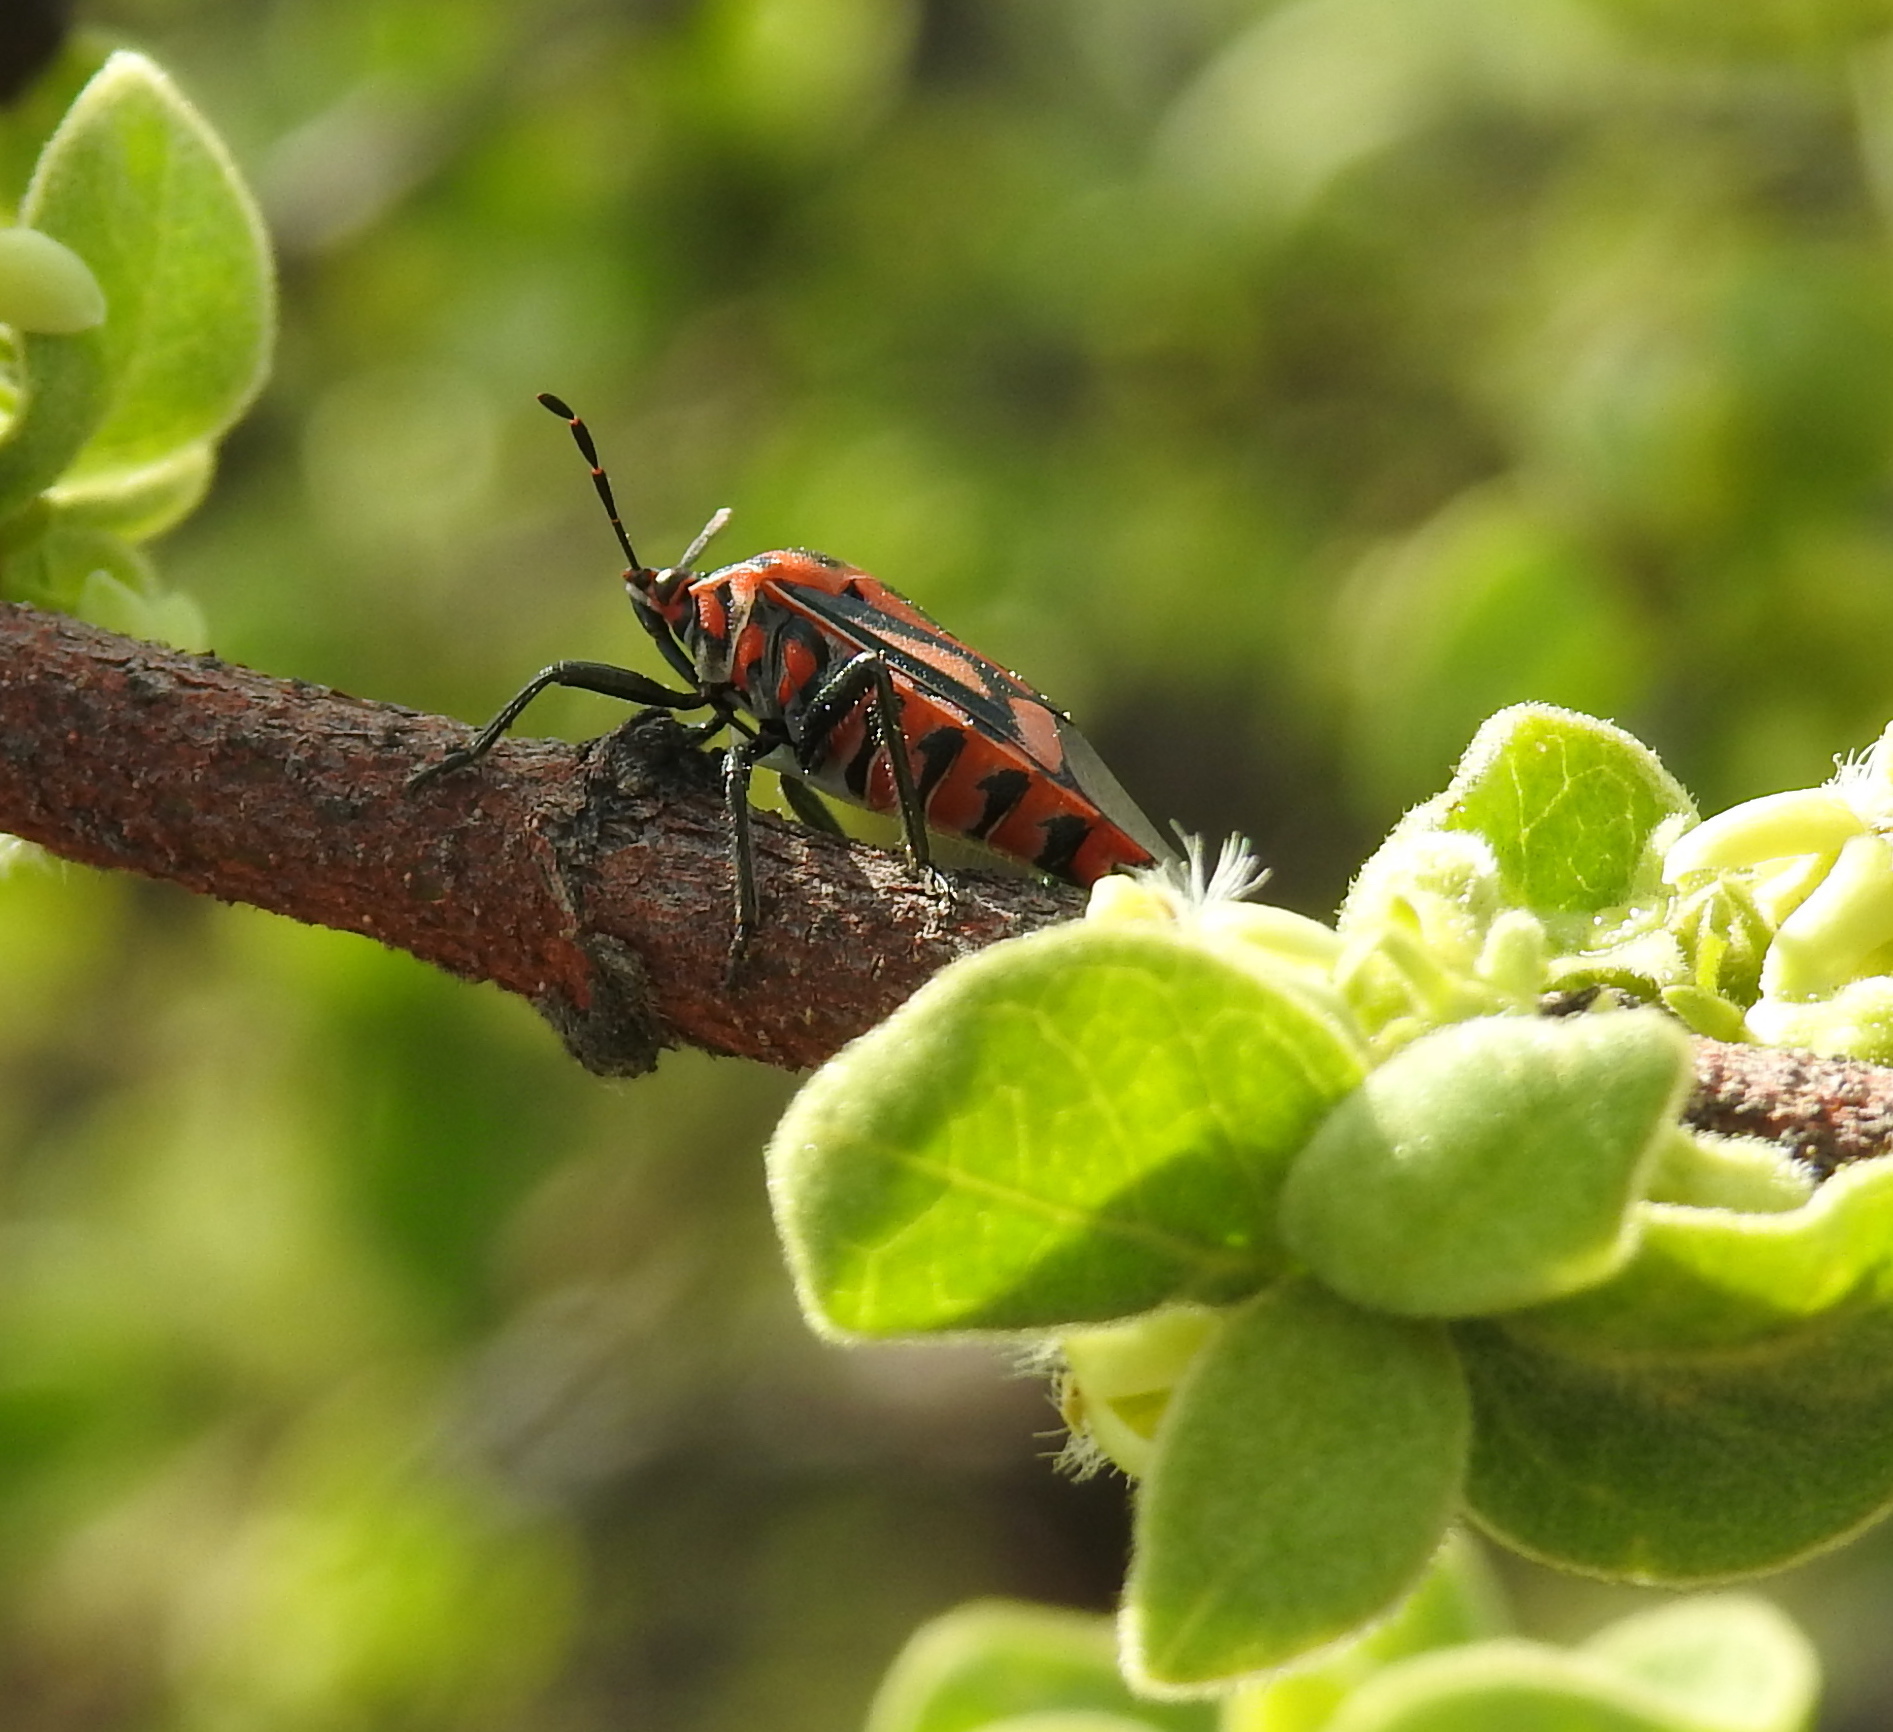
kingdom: Animalia
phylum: Arthropoda
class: Insecta
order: Hemiptera
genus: Mecosoma
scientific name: Mecosoma mensor
